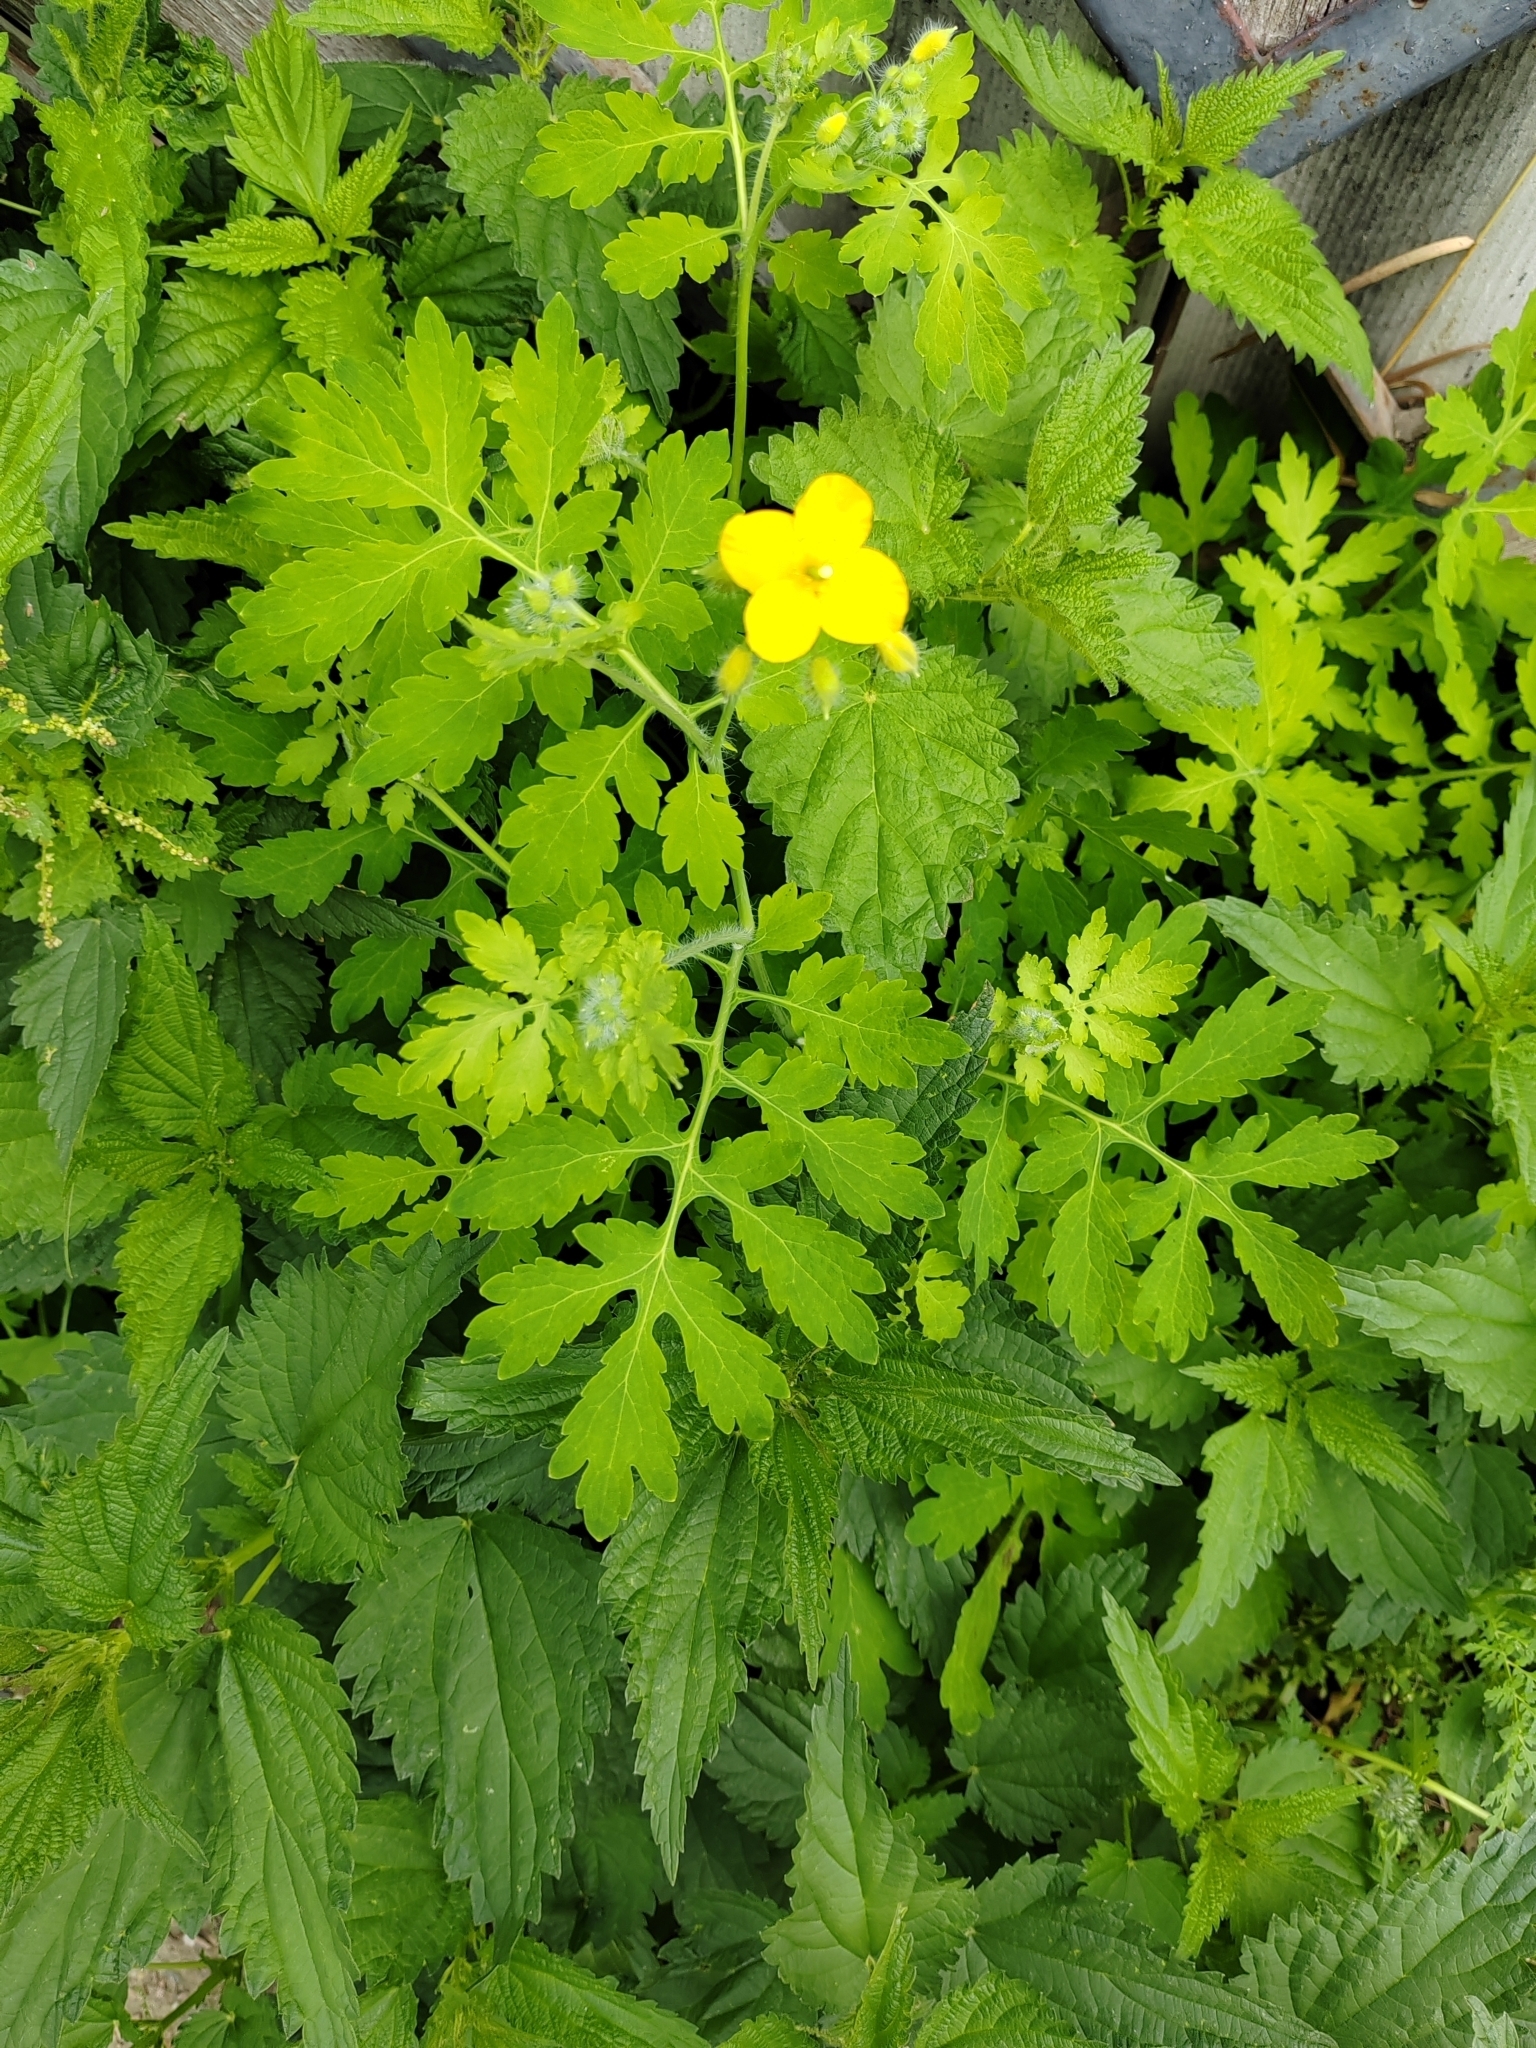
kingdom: Plantae
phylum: Tracheophyta
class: Magnoliopsida
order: Ranunculales
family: Papaveraceae
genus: Chelidonium
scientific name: Chelidonium majus
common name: Greater celandine
